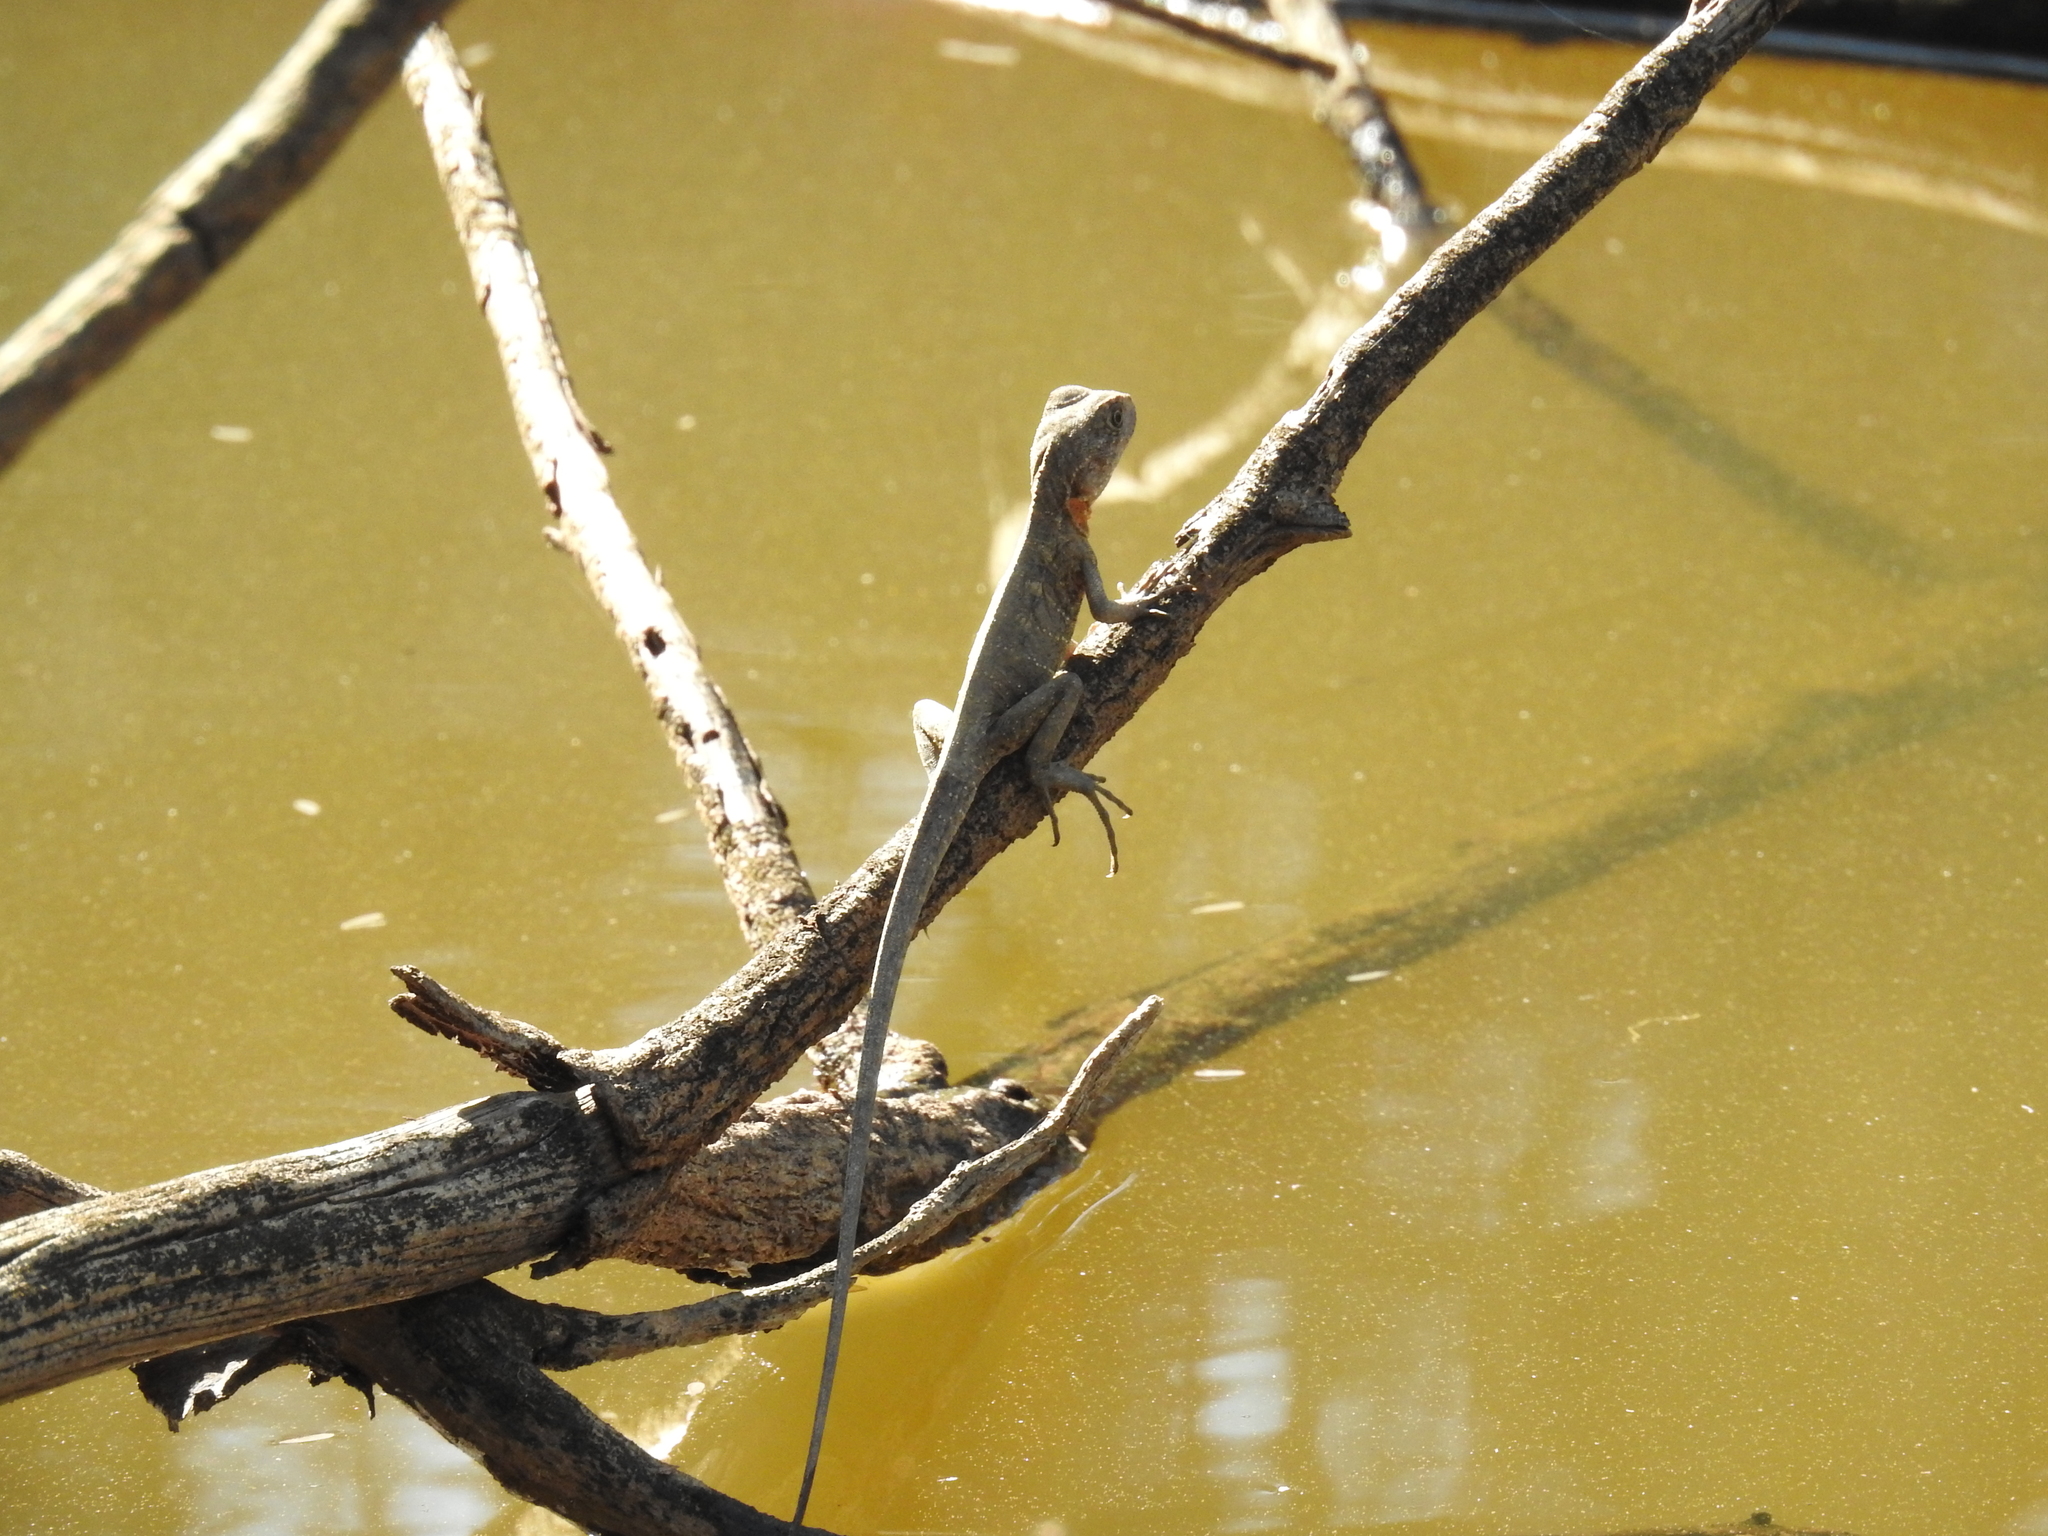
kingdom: Animalia
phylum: Chordata
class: Squamata
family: Agamidae
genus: Intellagama
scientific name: Intellagama lesueurii
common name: Eastern water dragon
